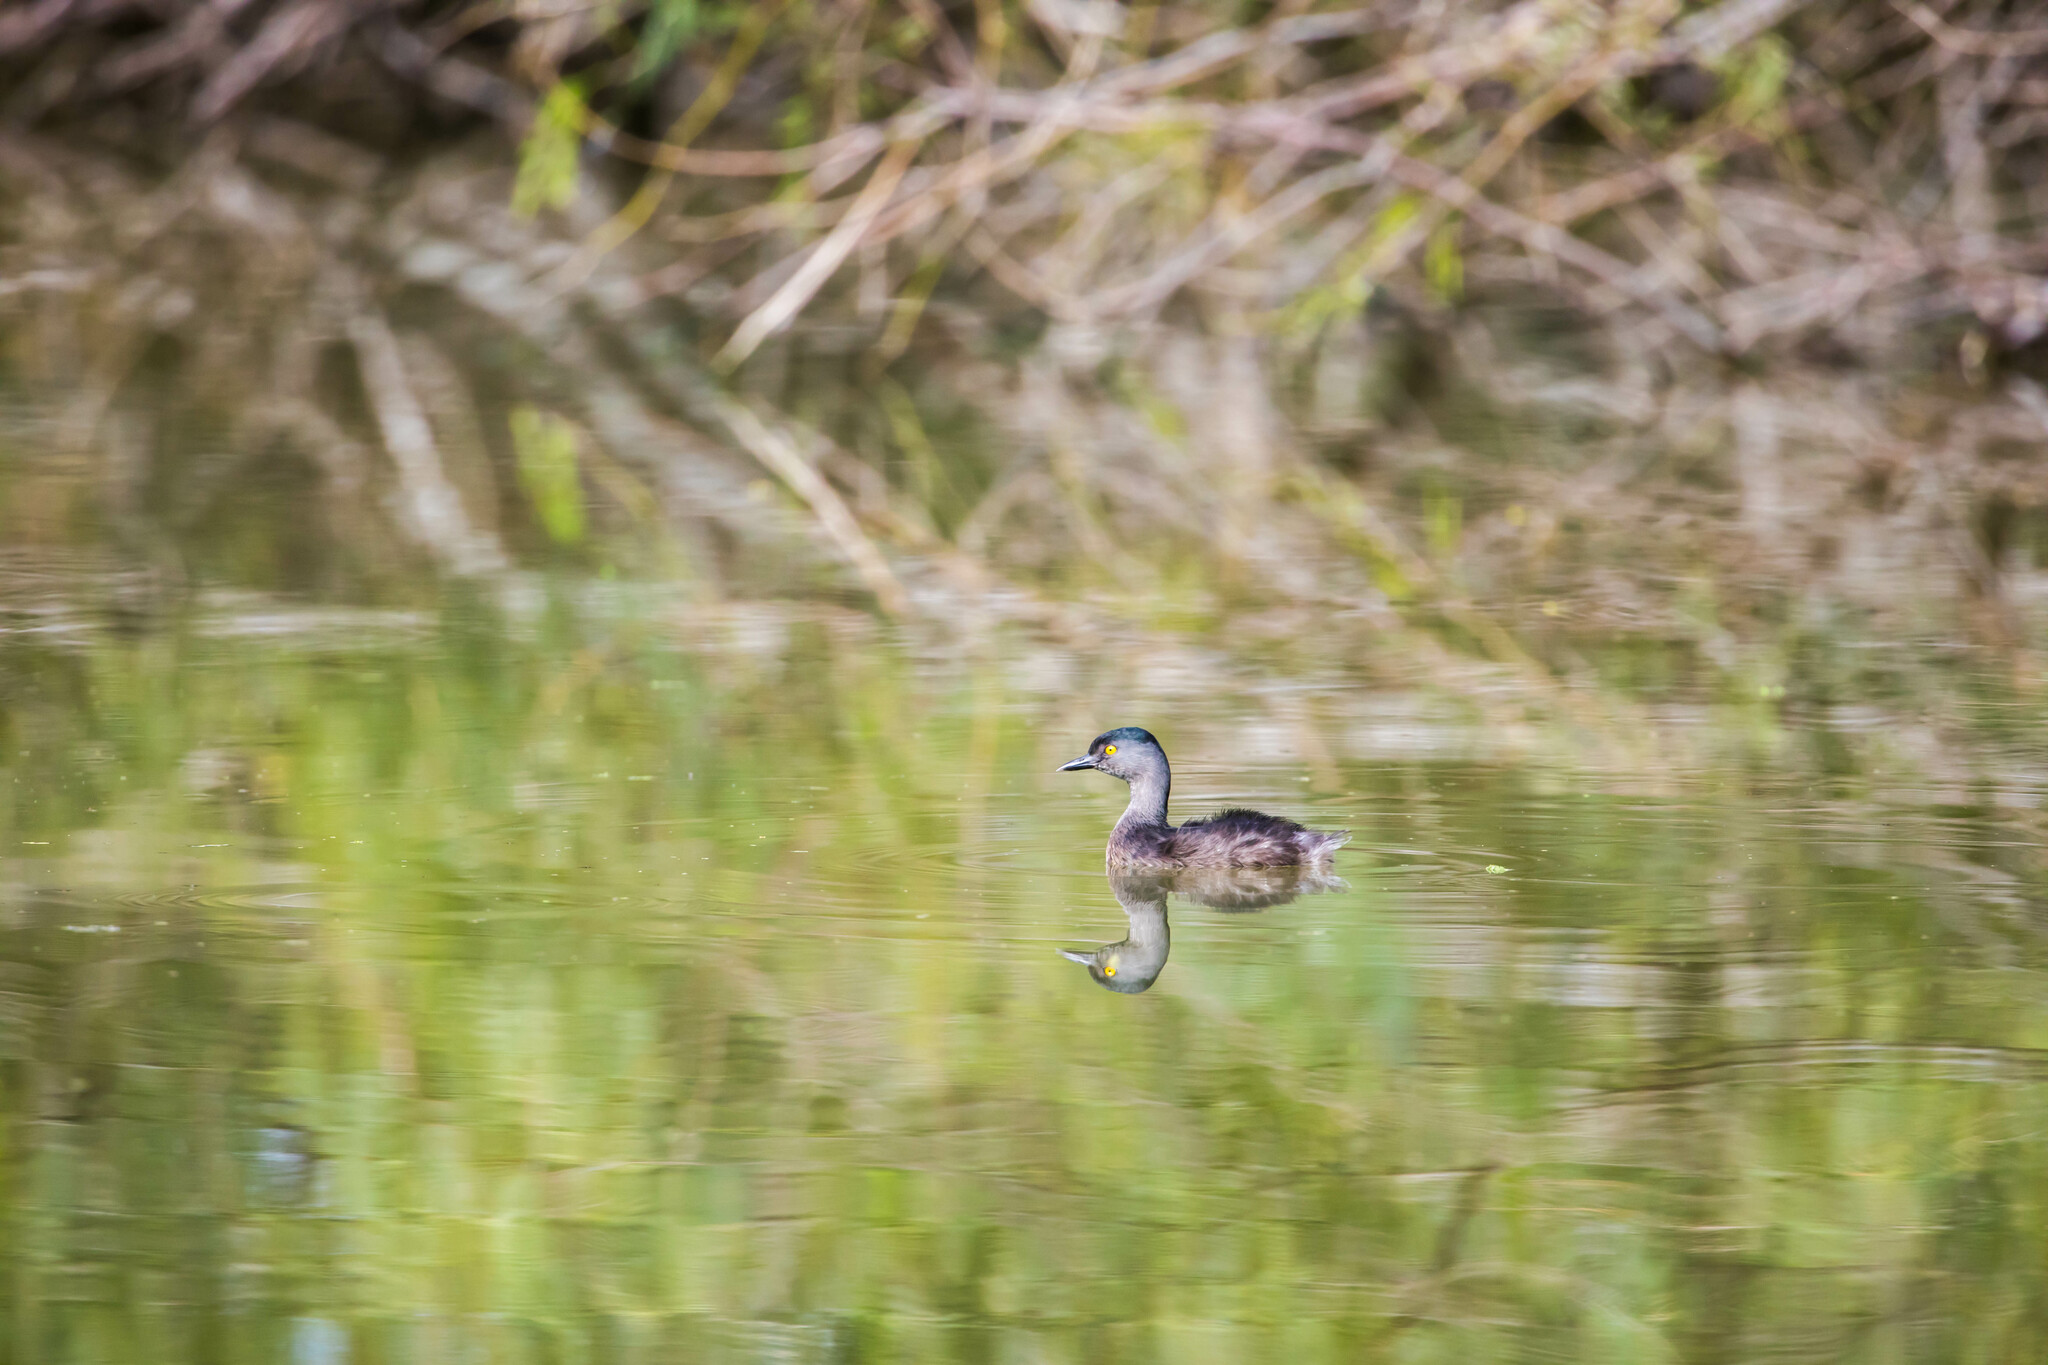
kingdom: Animalia
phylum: Chordata
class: Aves
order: Podicipediformes
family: Podicipedidae
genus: Tachybaptus
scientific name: Tachybaptus dominicus
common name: Least grebe
